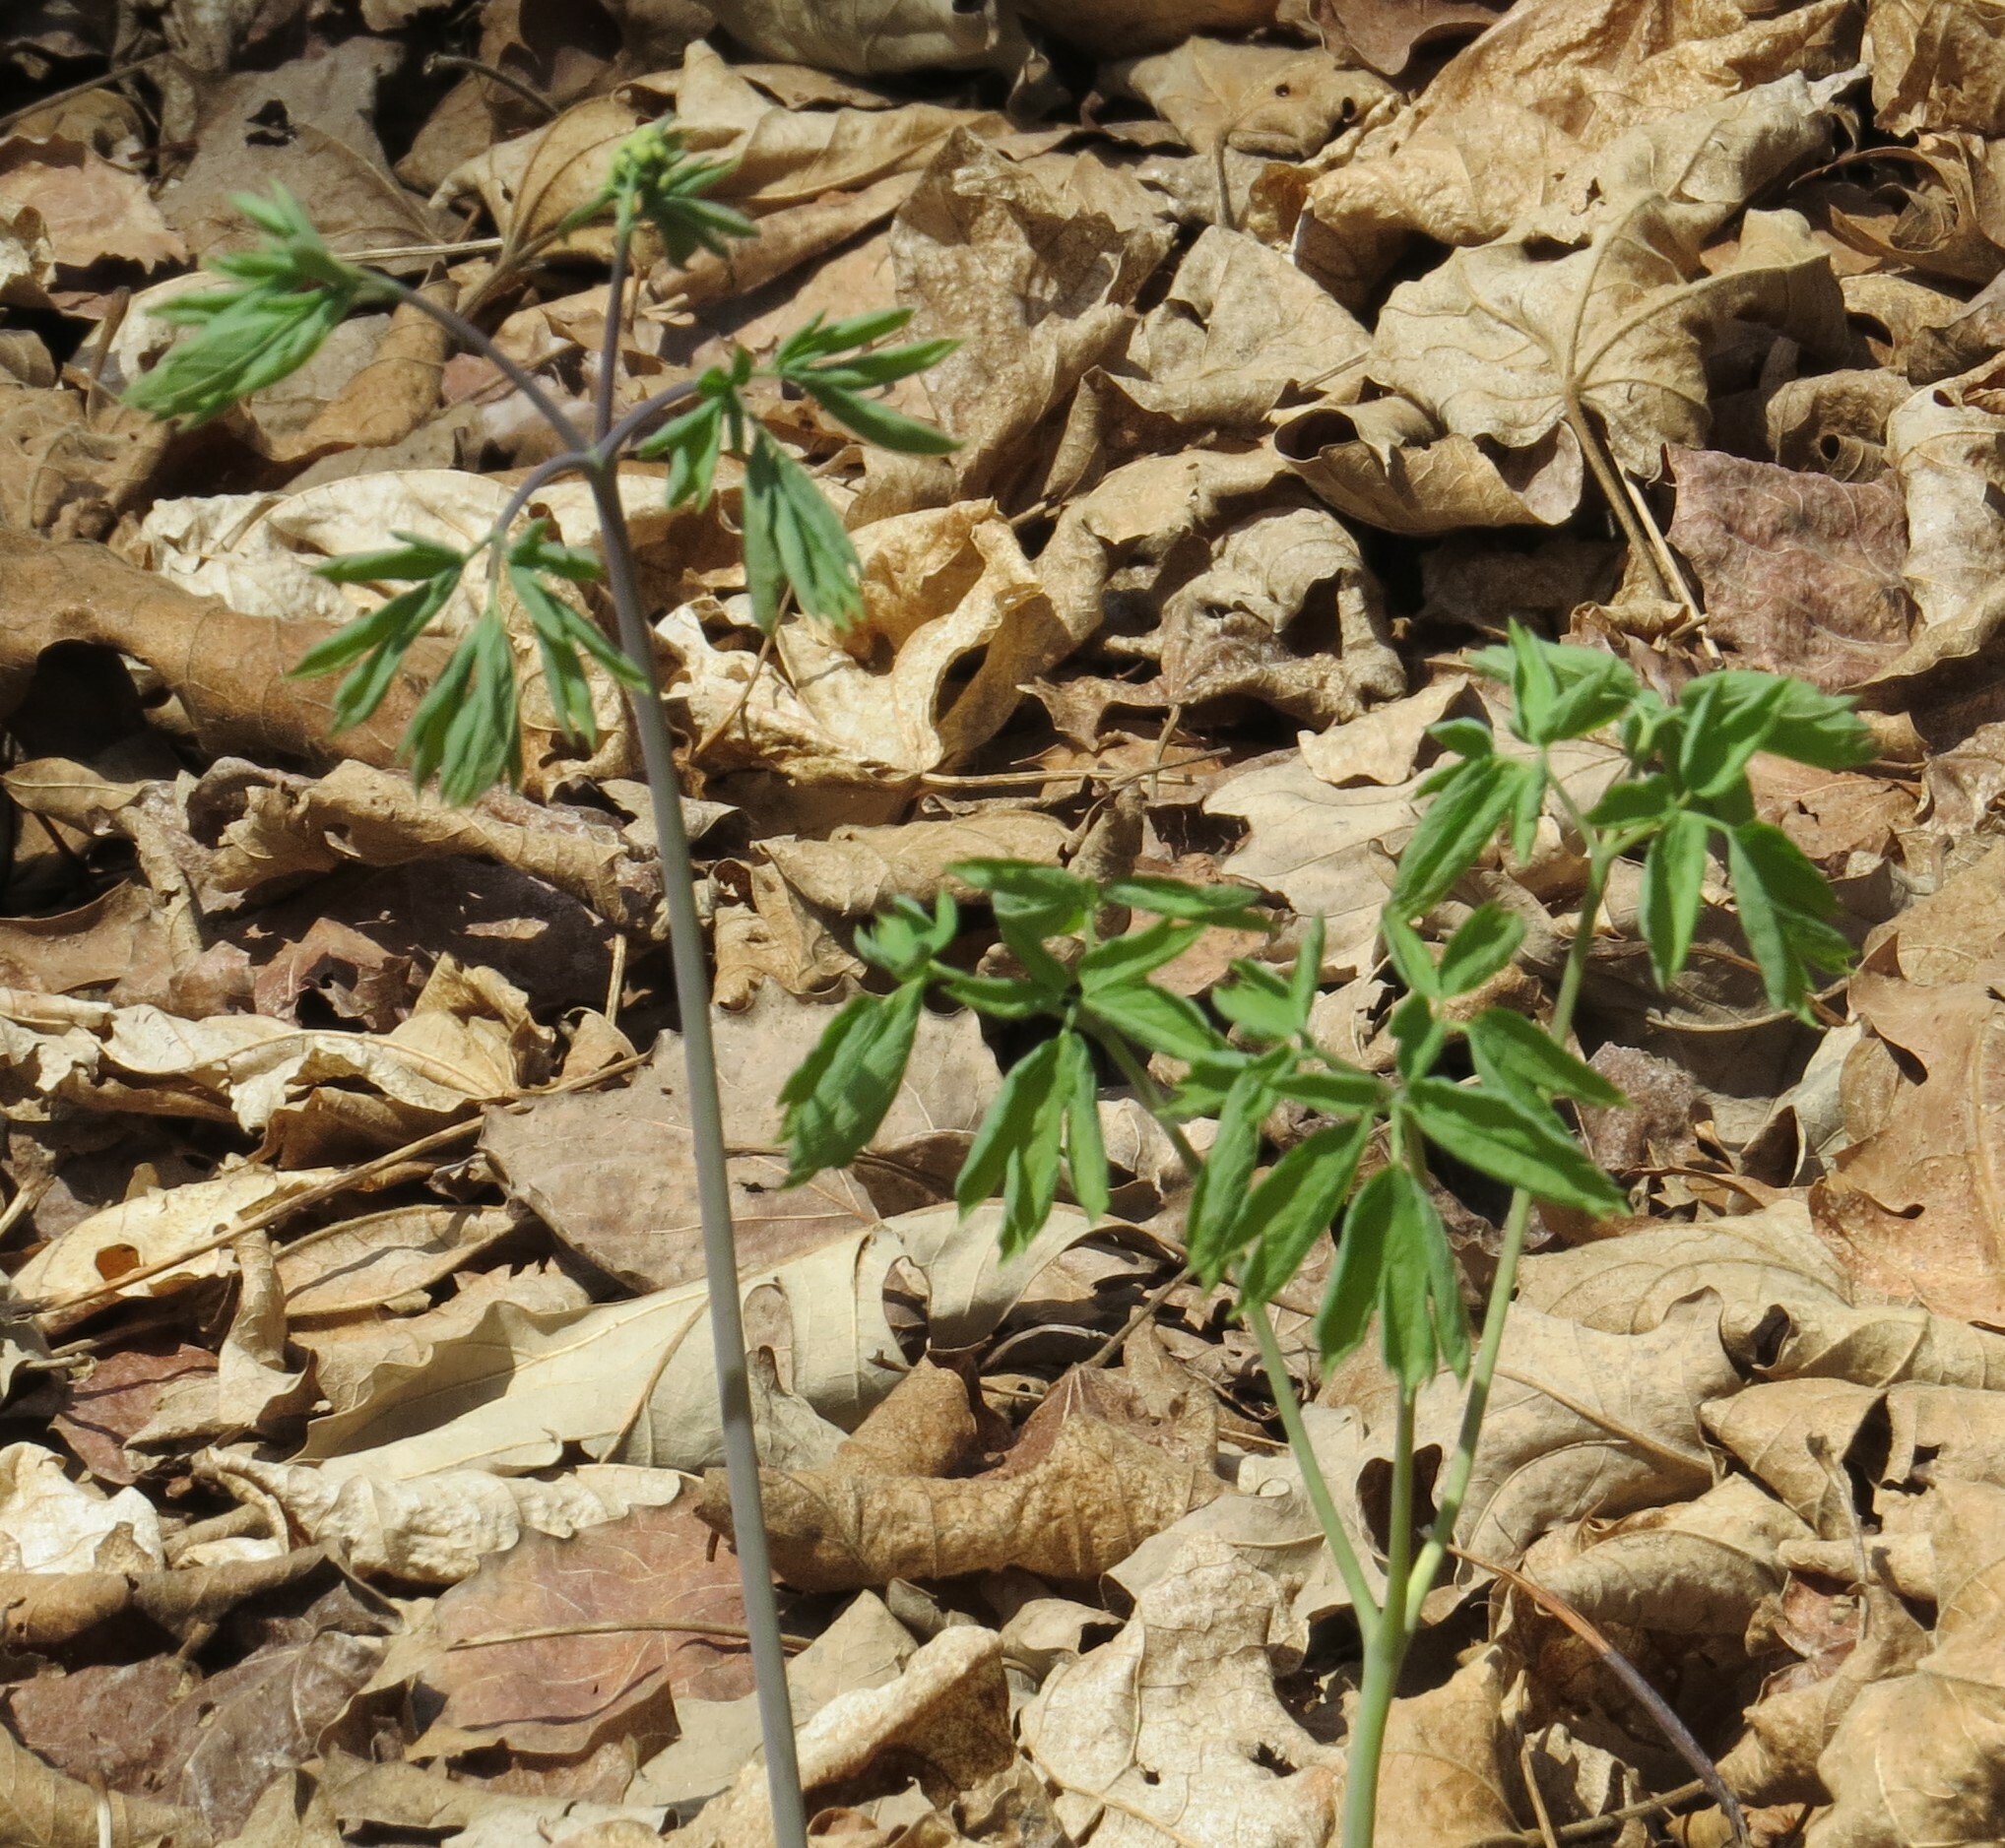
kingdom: Plantae
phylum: Tracheophyta
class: Magnoliopsida
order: Ranunculales
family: Berberidaceae
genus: Caulophyllum
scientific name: Caulophyllum thalictroides
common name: Blue cohosh
